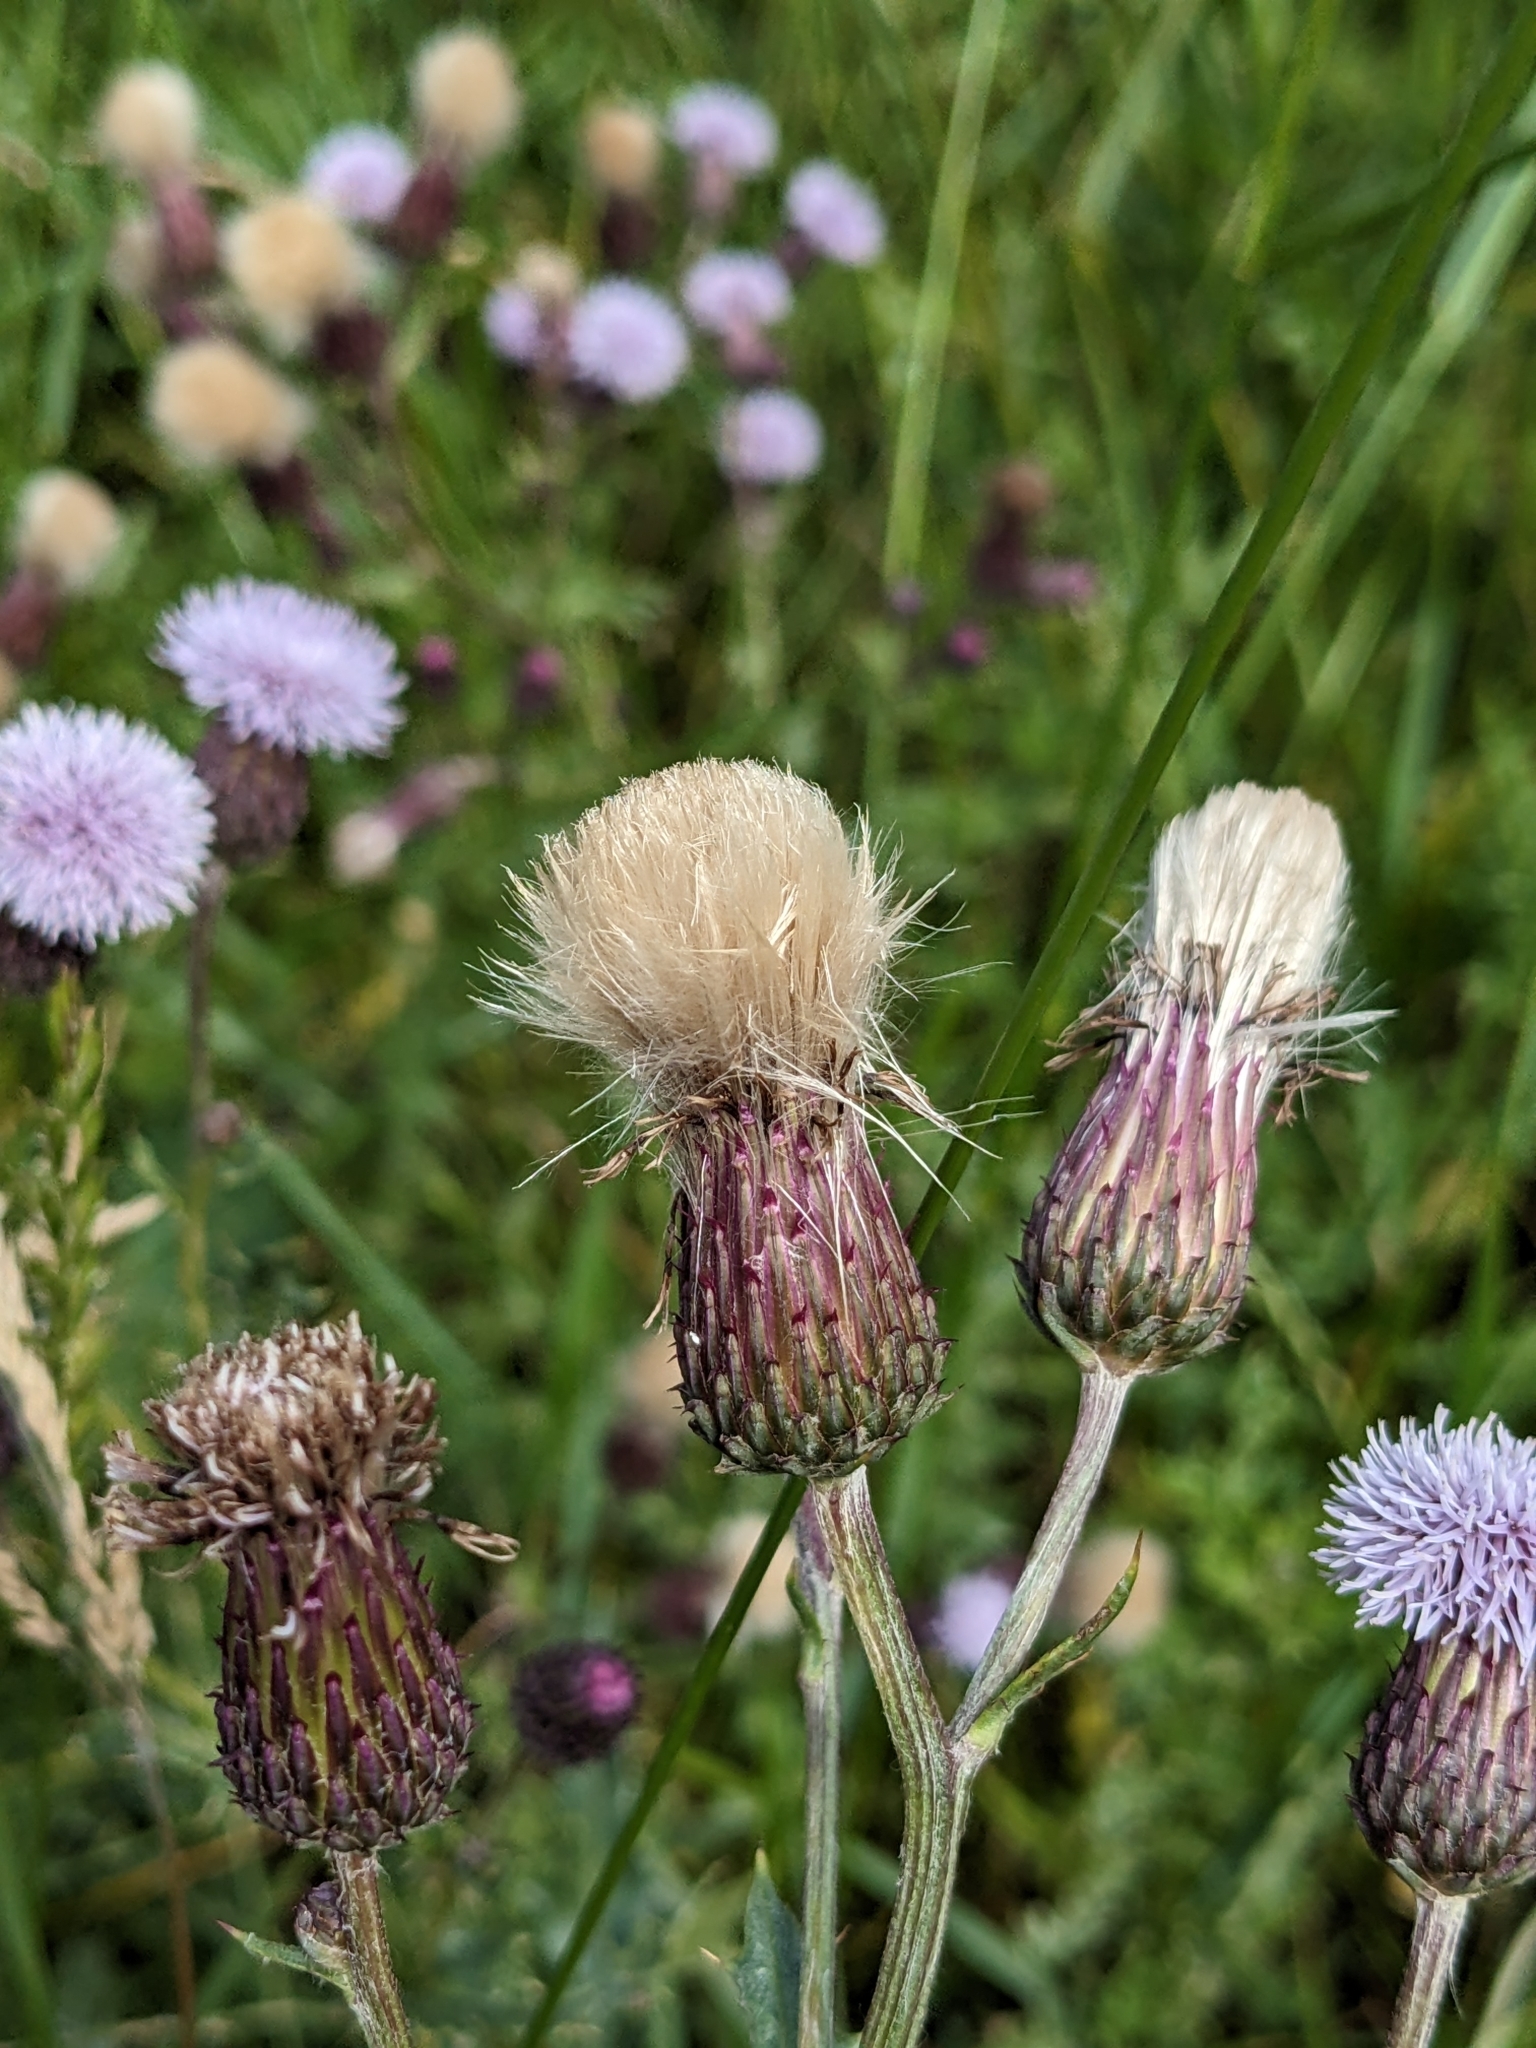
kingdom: Plantae
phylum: Tracheophyta
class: Magnoliopsida
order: Asterales
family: Asteraceae
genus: Cirsium
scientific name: Cirsium arvense
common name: Creeping thistle
